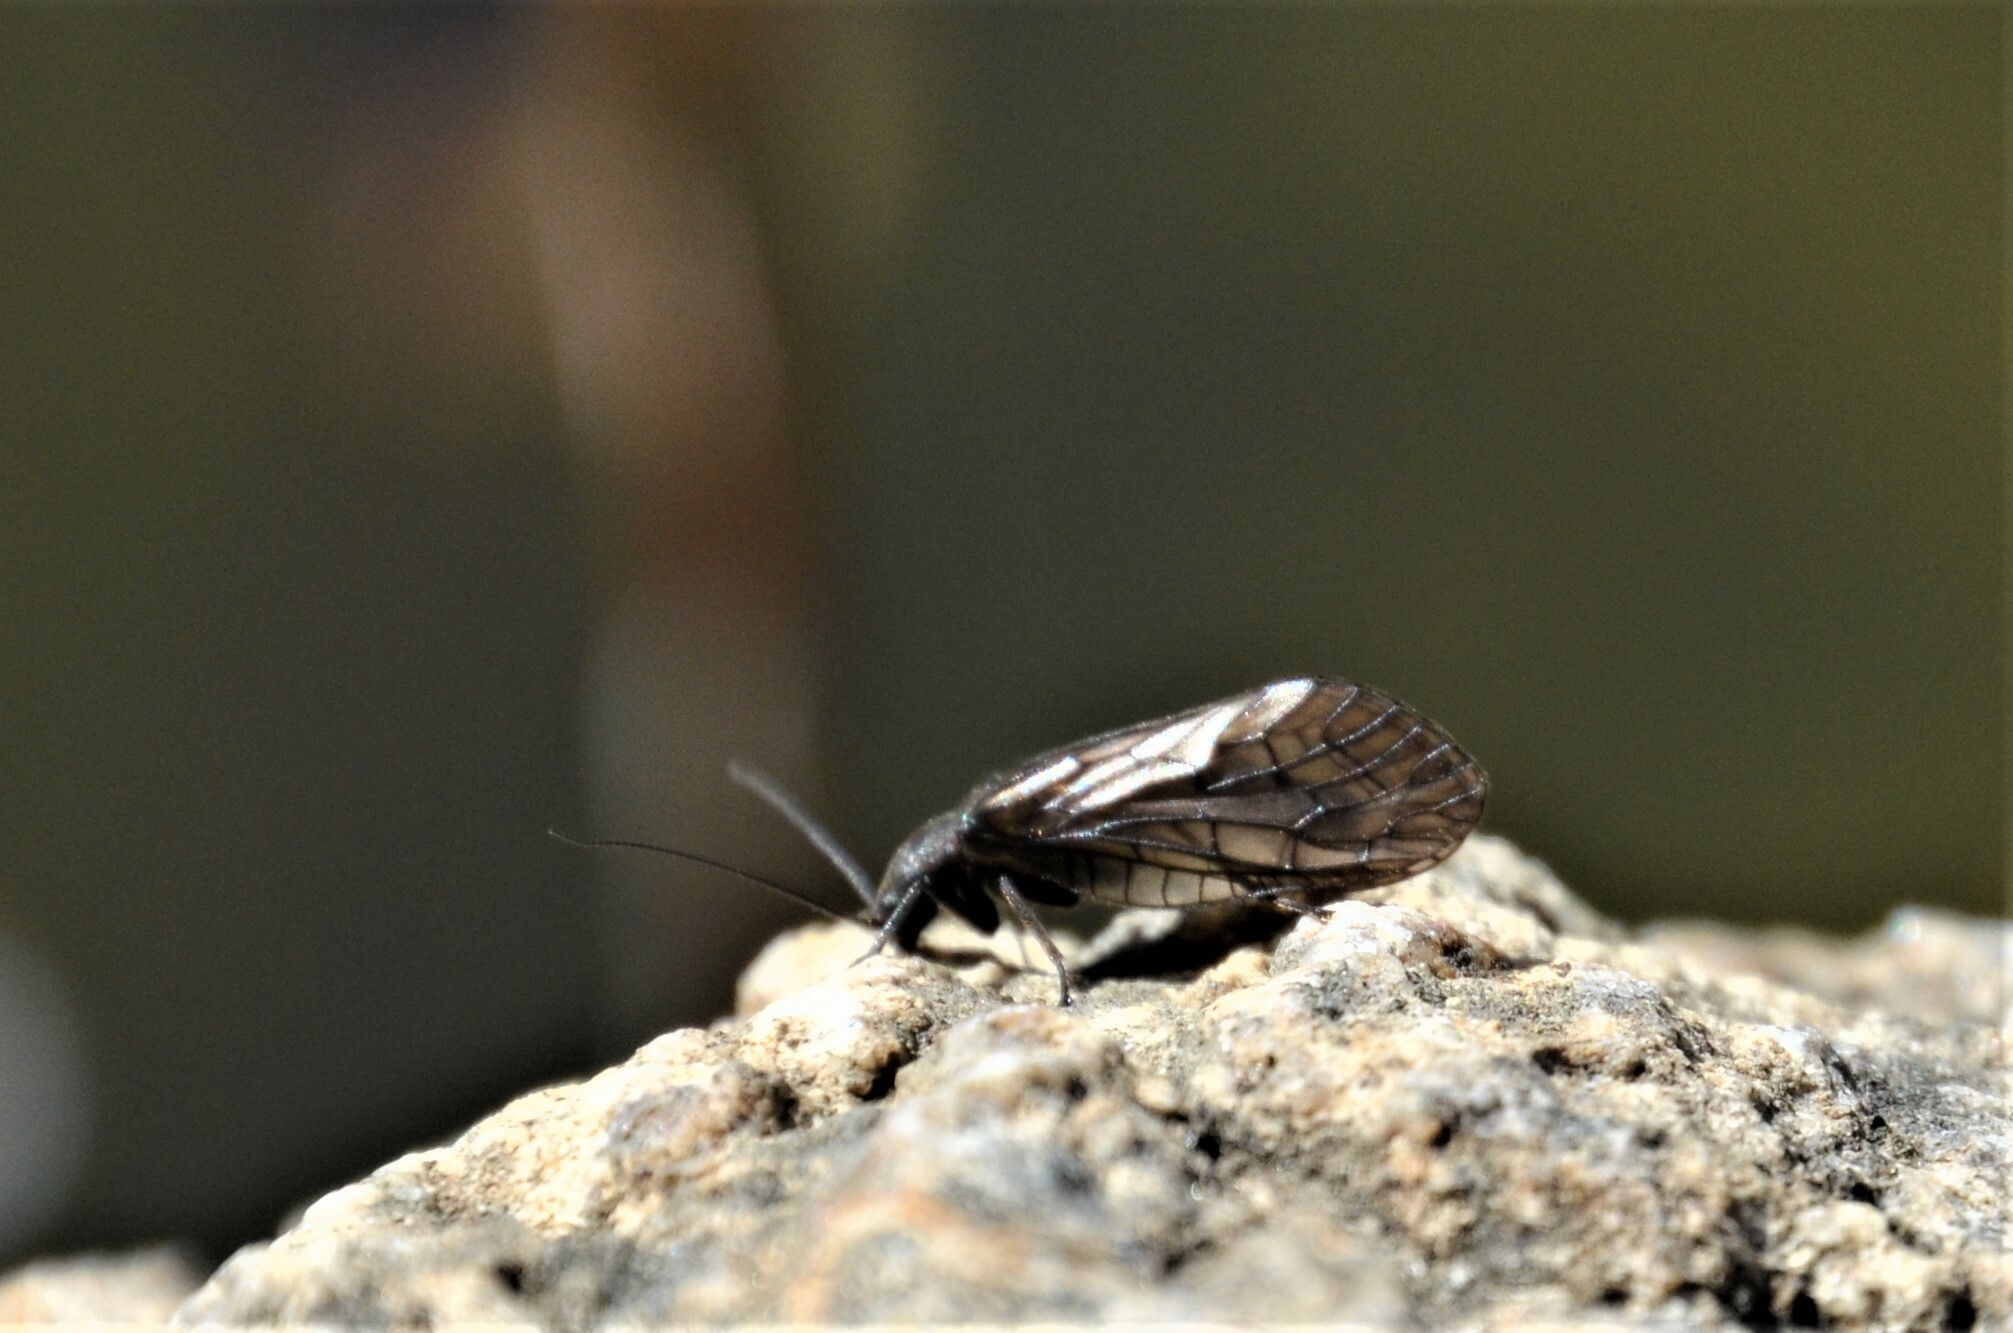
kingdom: Animalia
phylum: Arthropoda
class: Insecta
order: Megaloptera
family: Sialidae
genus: Sialis
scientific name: Sialis
